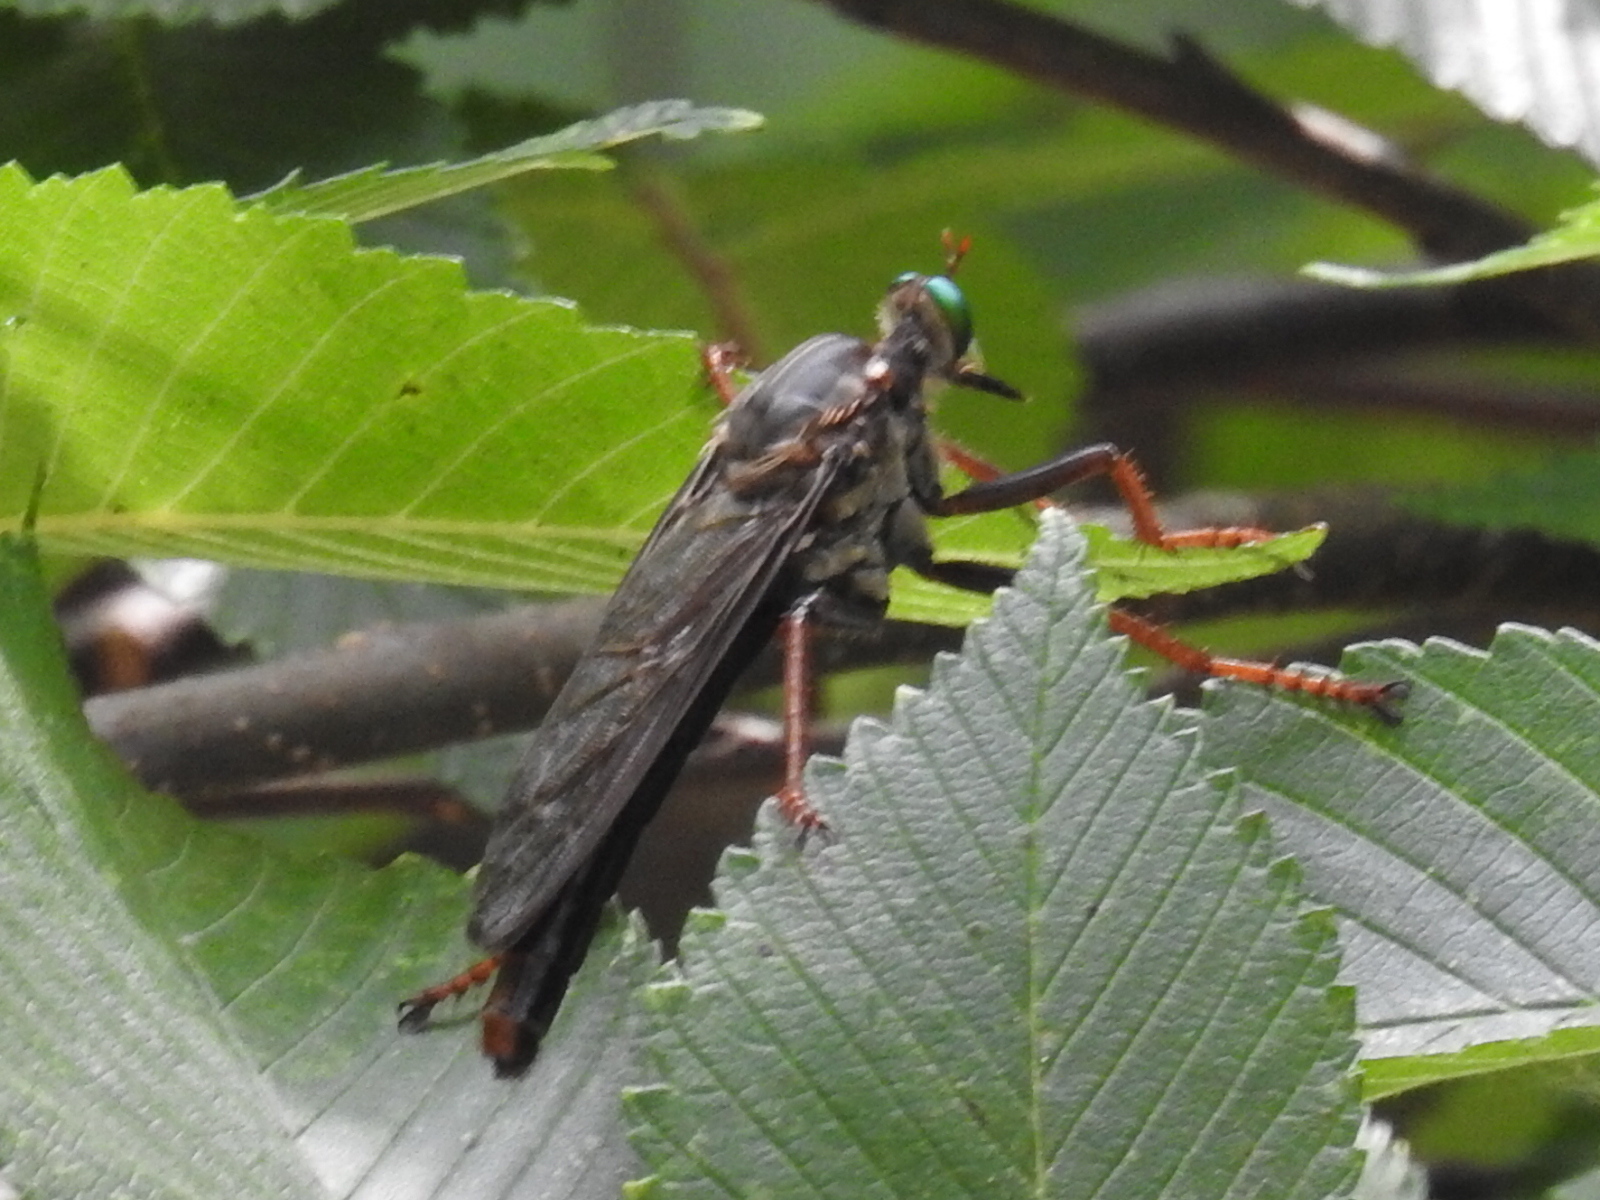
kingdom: Animalia
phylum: Arthropoda
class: Insecta
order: Diptera
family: Asilidae
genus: Microstylum
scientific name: Microstylum morosum
